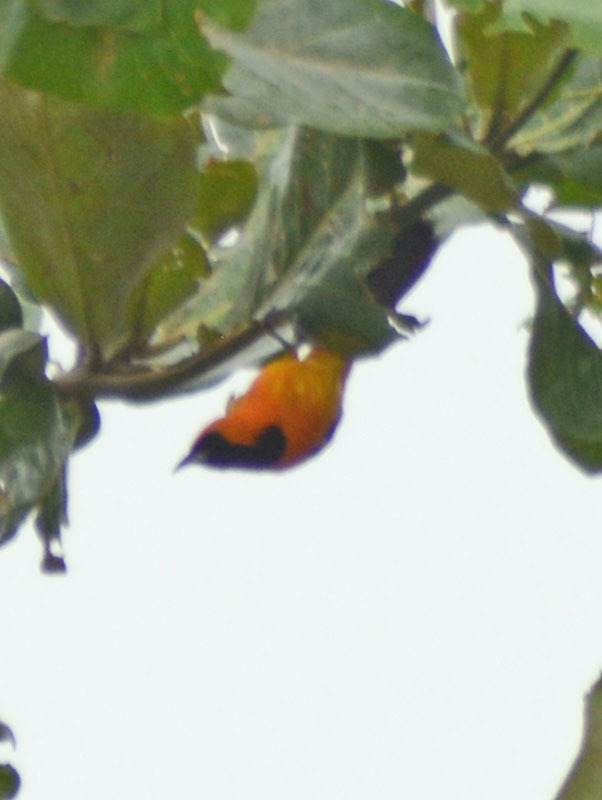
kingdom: Animalia
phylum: Chordata
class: Aves
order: Passeriformes
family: Icteridae
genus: Icterus
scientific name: Icterus cucullatus
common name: Hooded oriole
